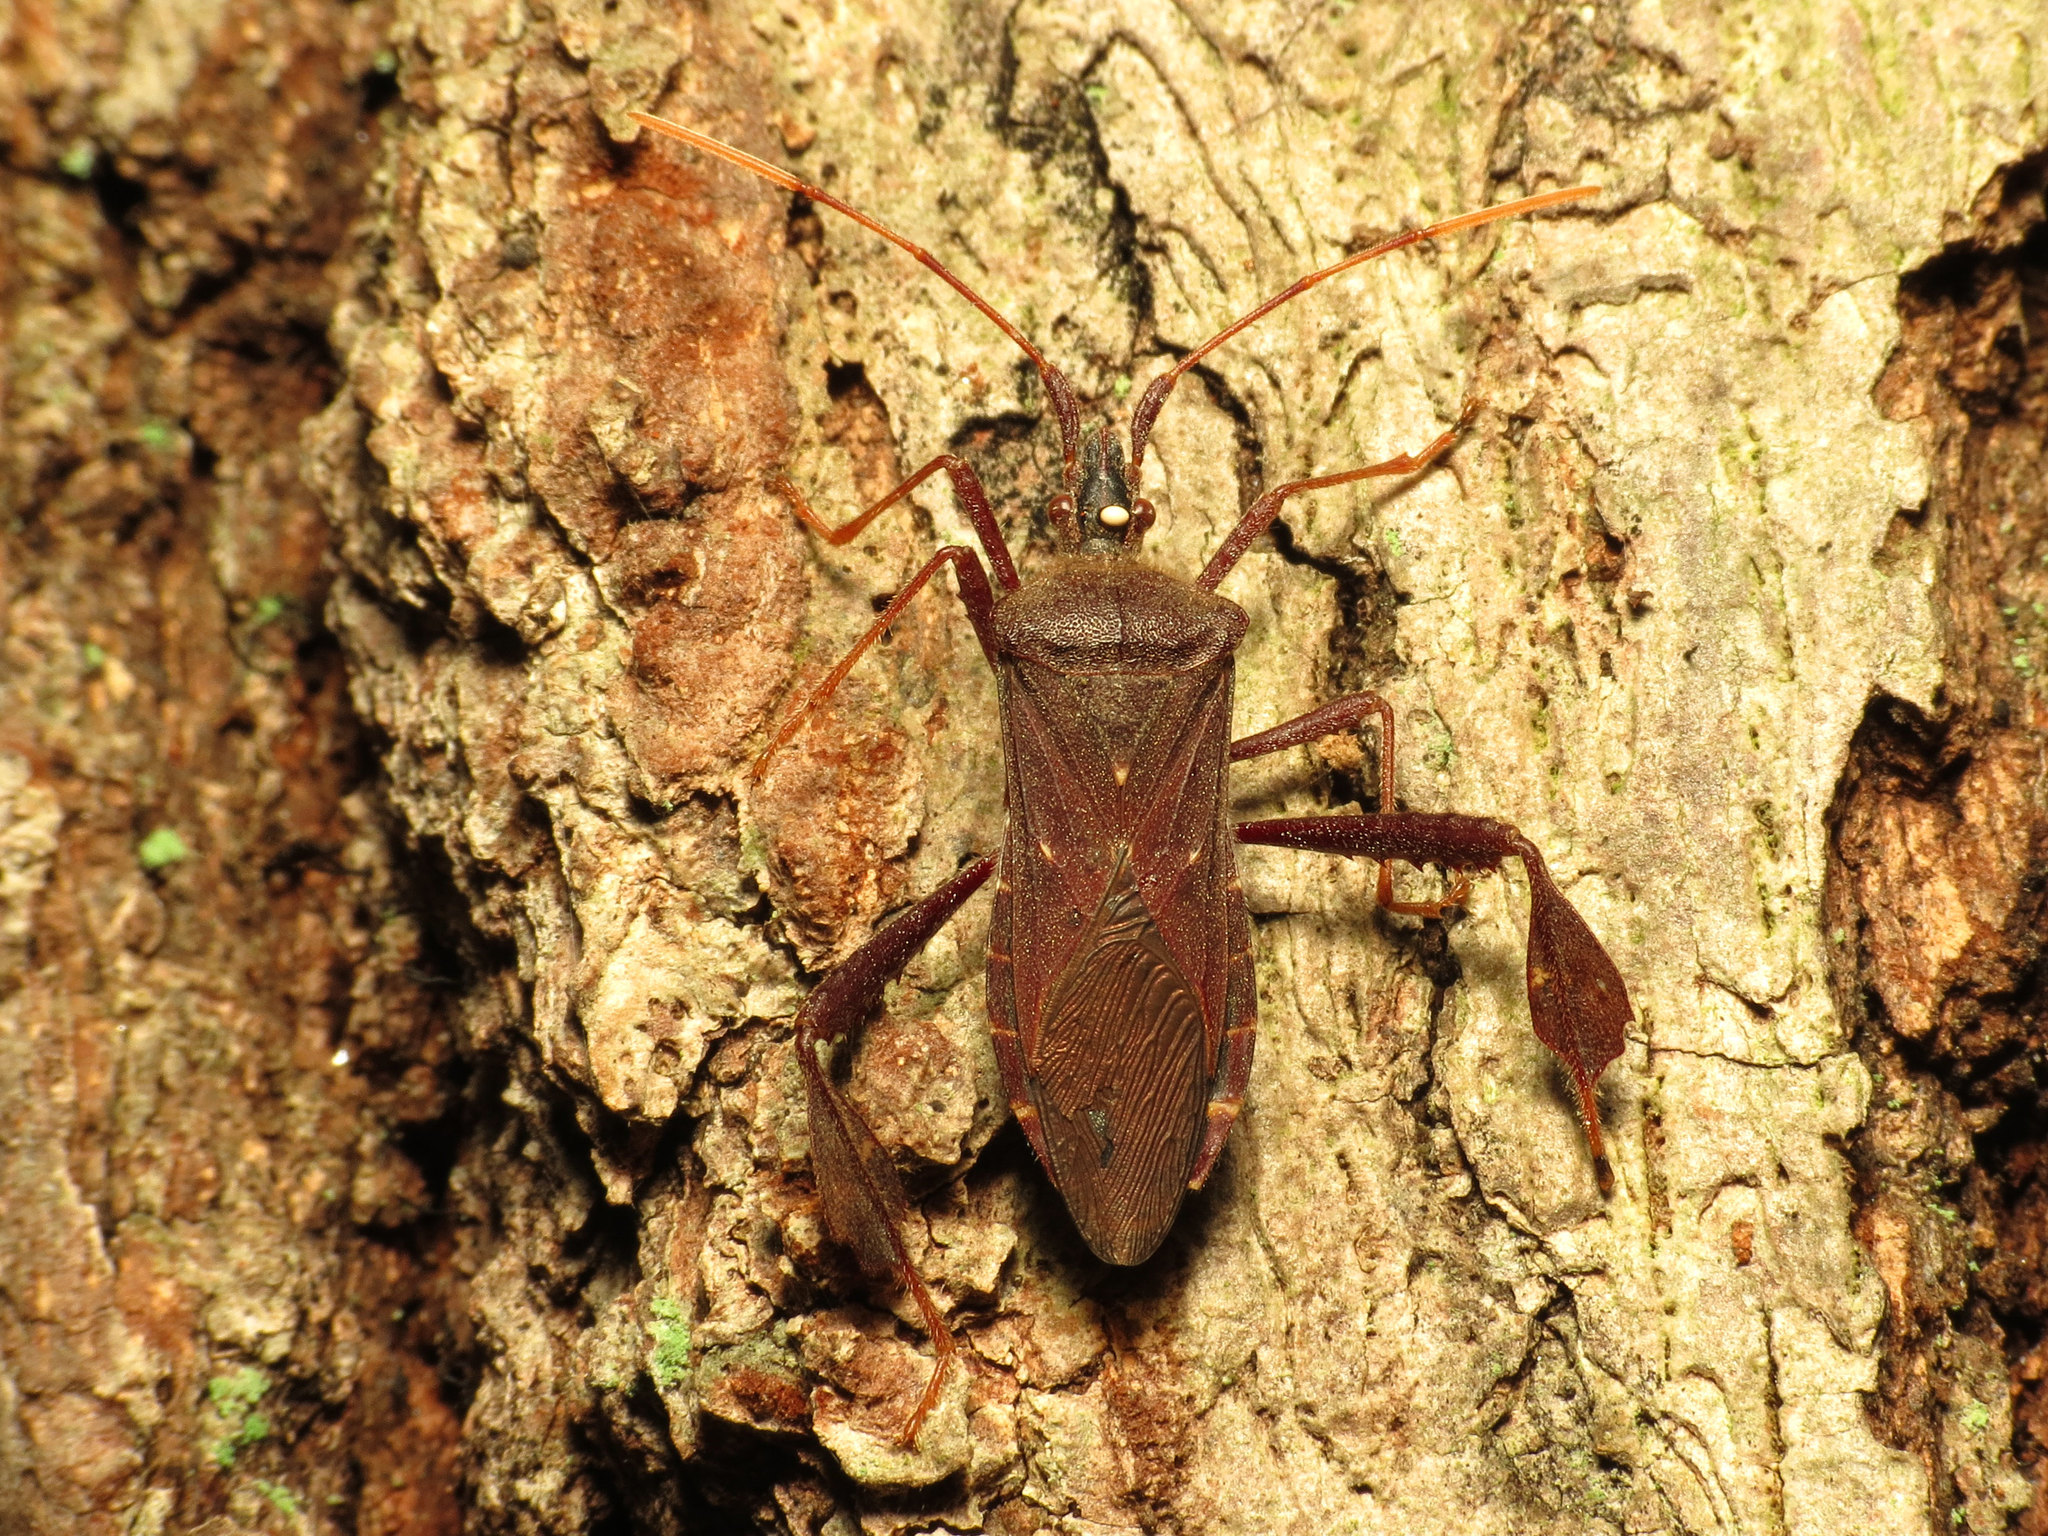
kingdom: Animalia
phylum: Arthropoda
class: Insecta
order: Hemiptera
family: Coreidae
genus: Leptoglossus
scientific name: Leptoglossus oppositus
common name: Northern leaf-footed bug
